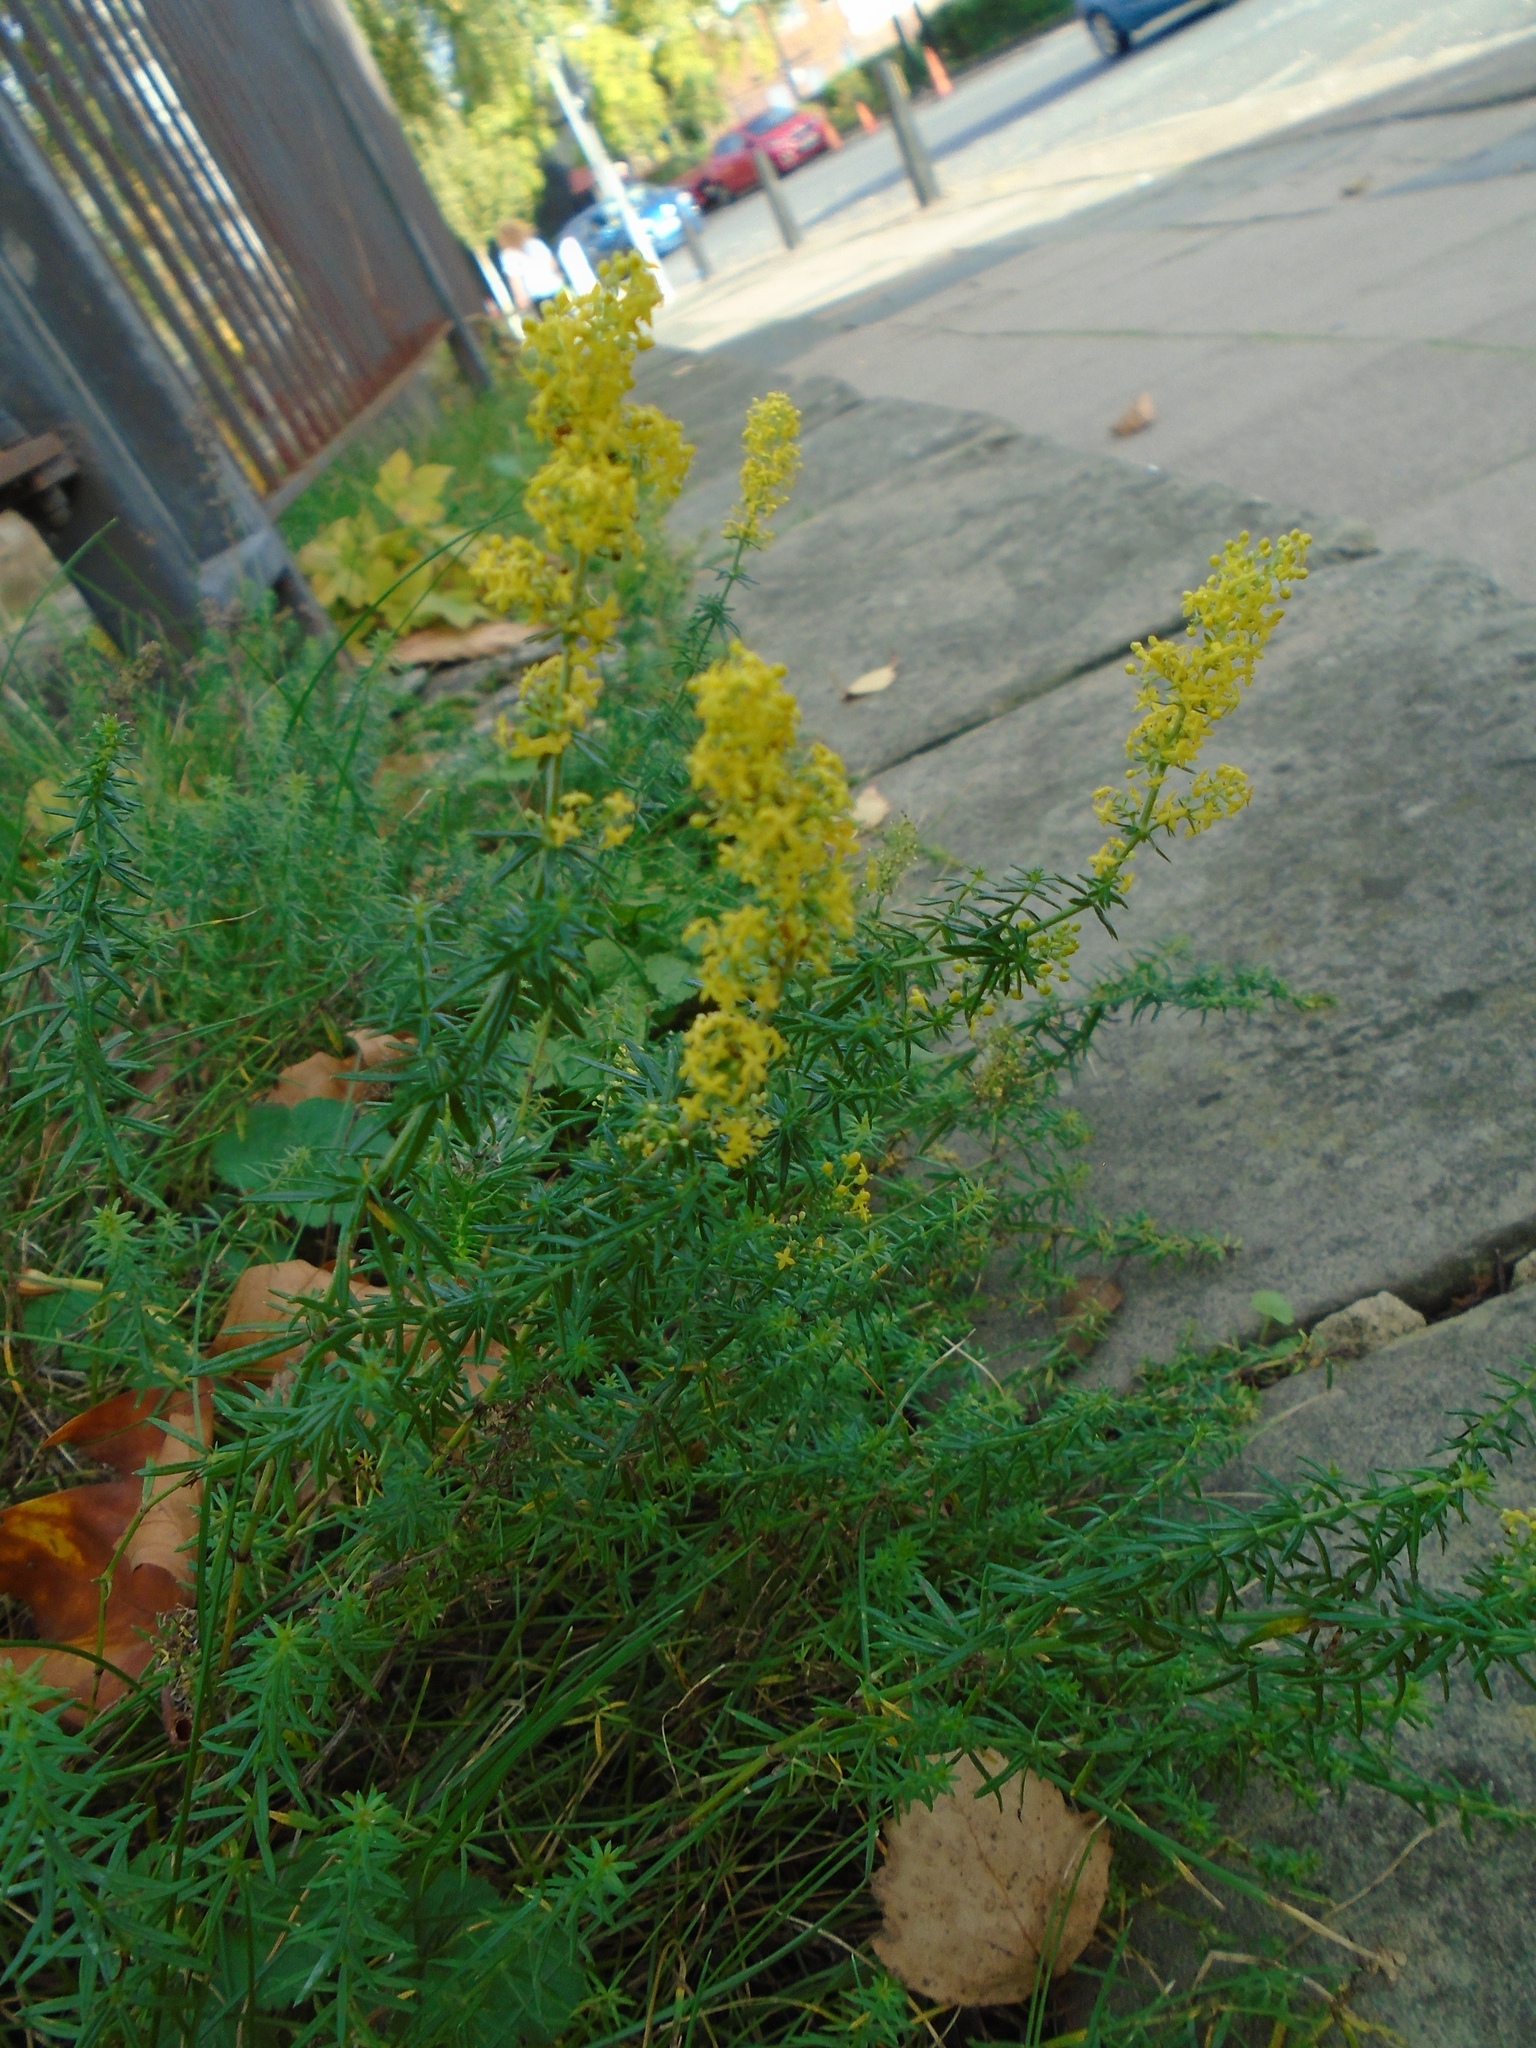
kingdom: Plantae
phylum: Tracheophyta
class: Magnoliopsida
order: Gentianales
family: Rubiaceae
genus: Galium
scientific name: Galium verum
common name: Lady's bedstraw
